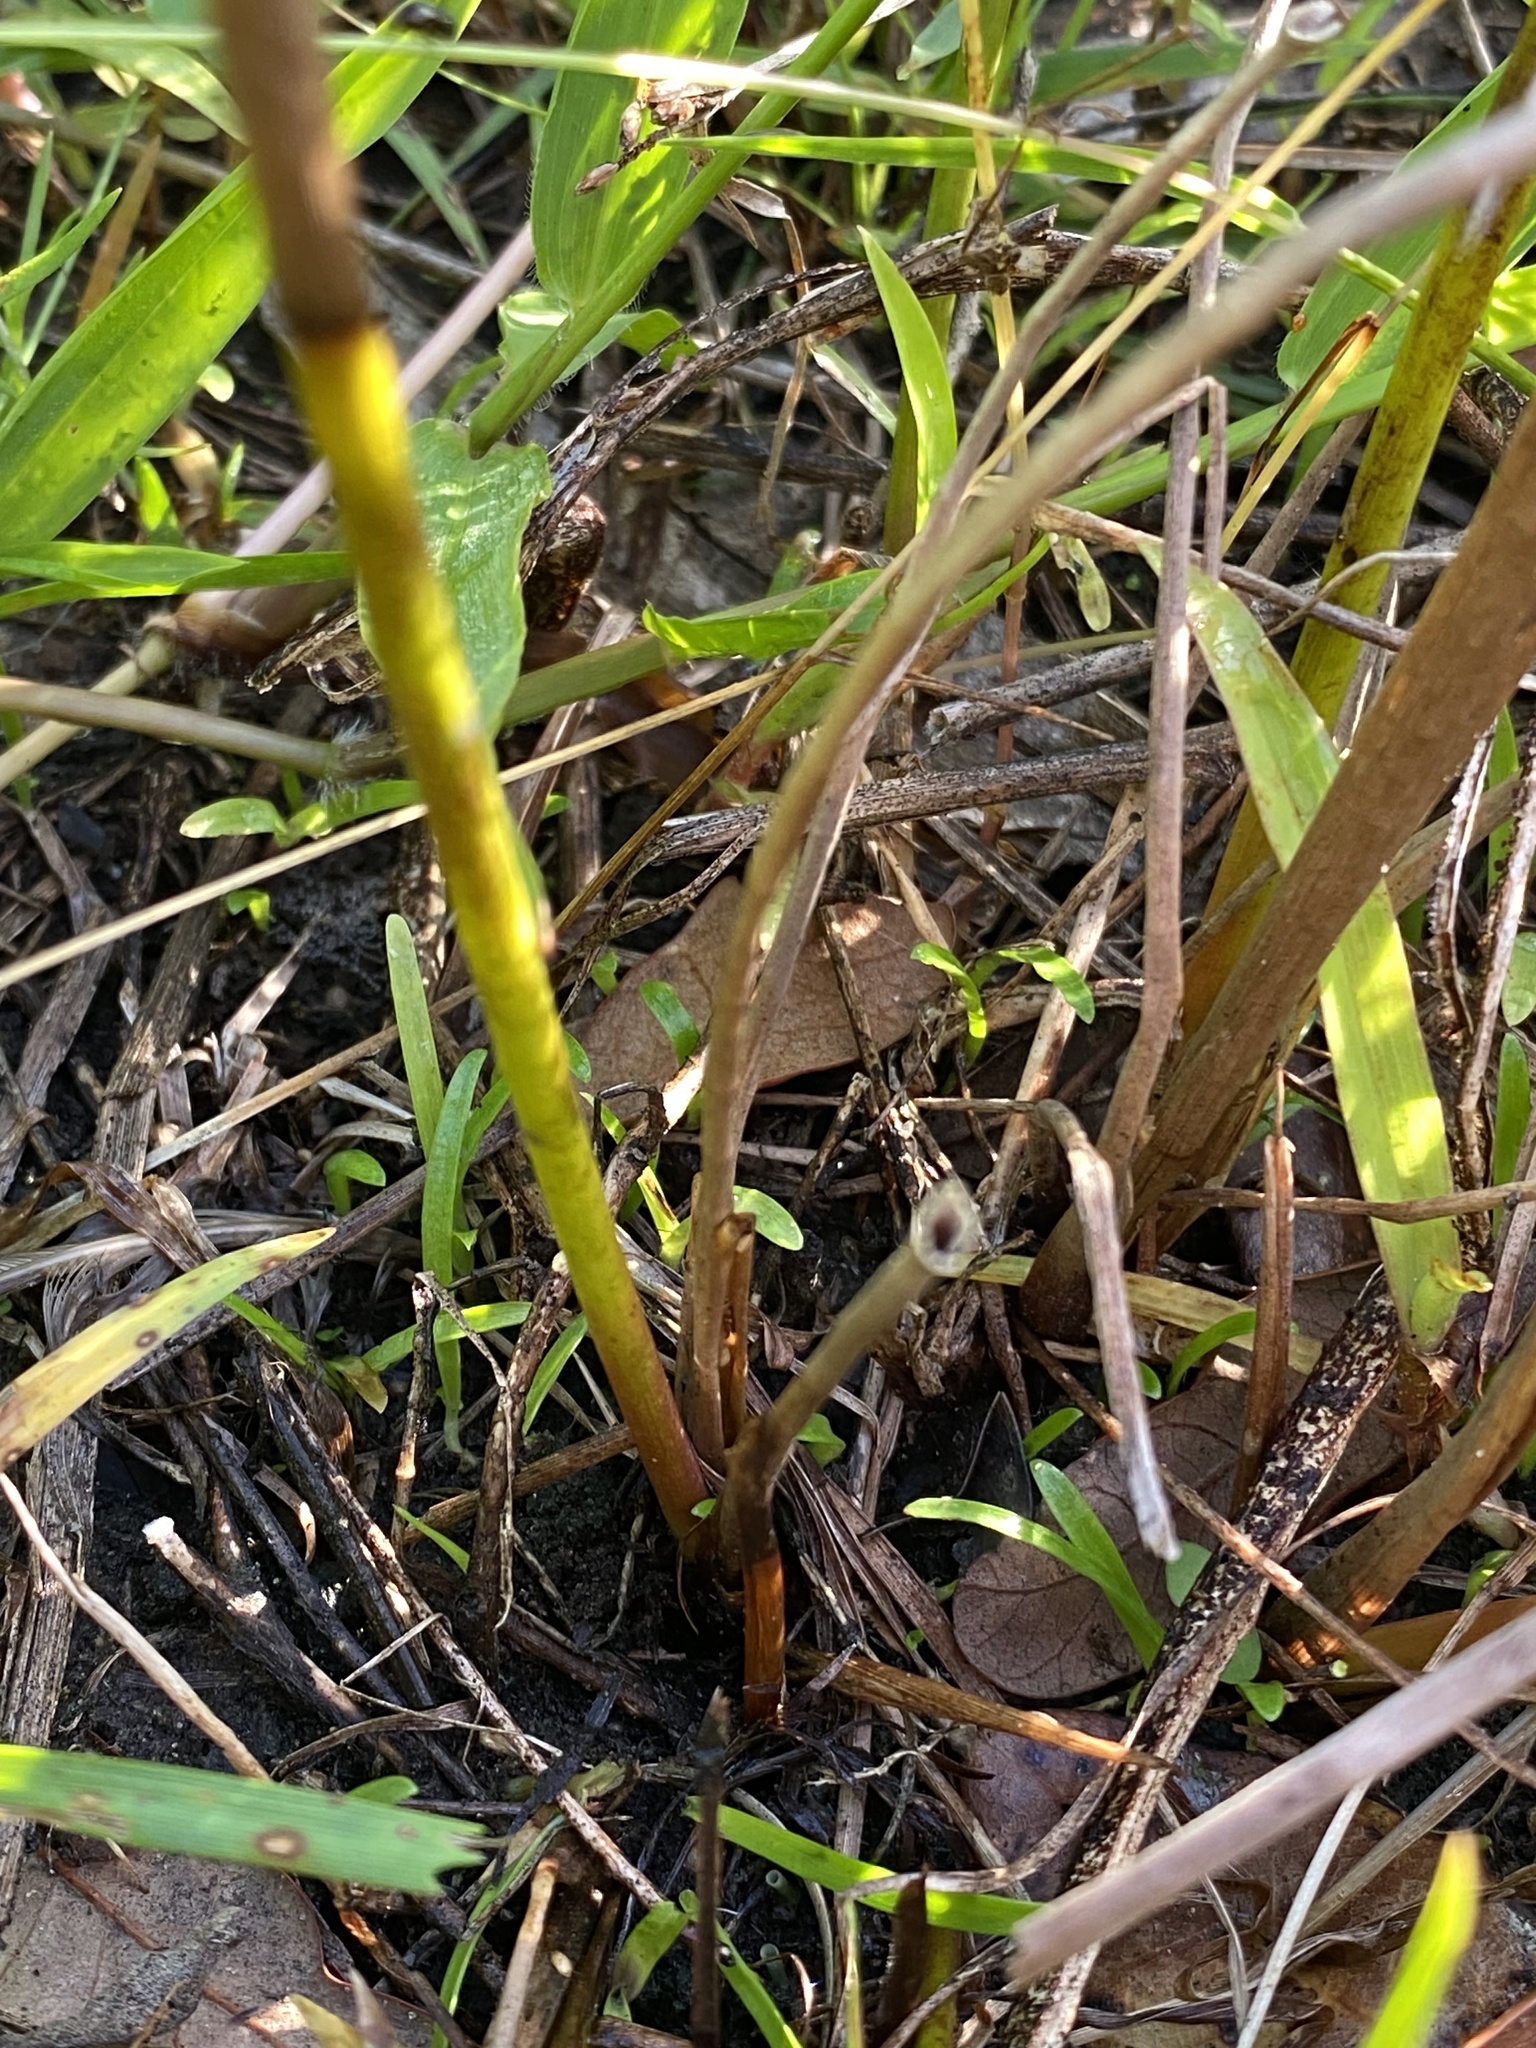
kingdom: Plantae
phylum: Tracheophyta
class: Liliopsida
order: Poales
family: Juncaceae
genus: Juncus
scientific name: Juncus megacephalus
